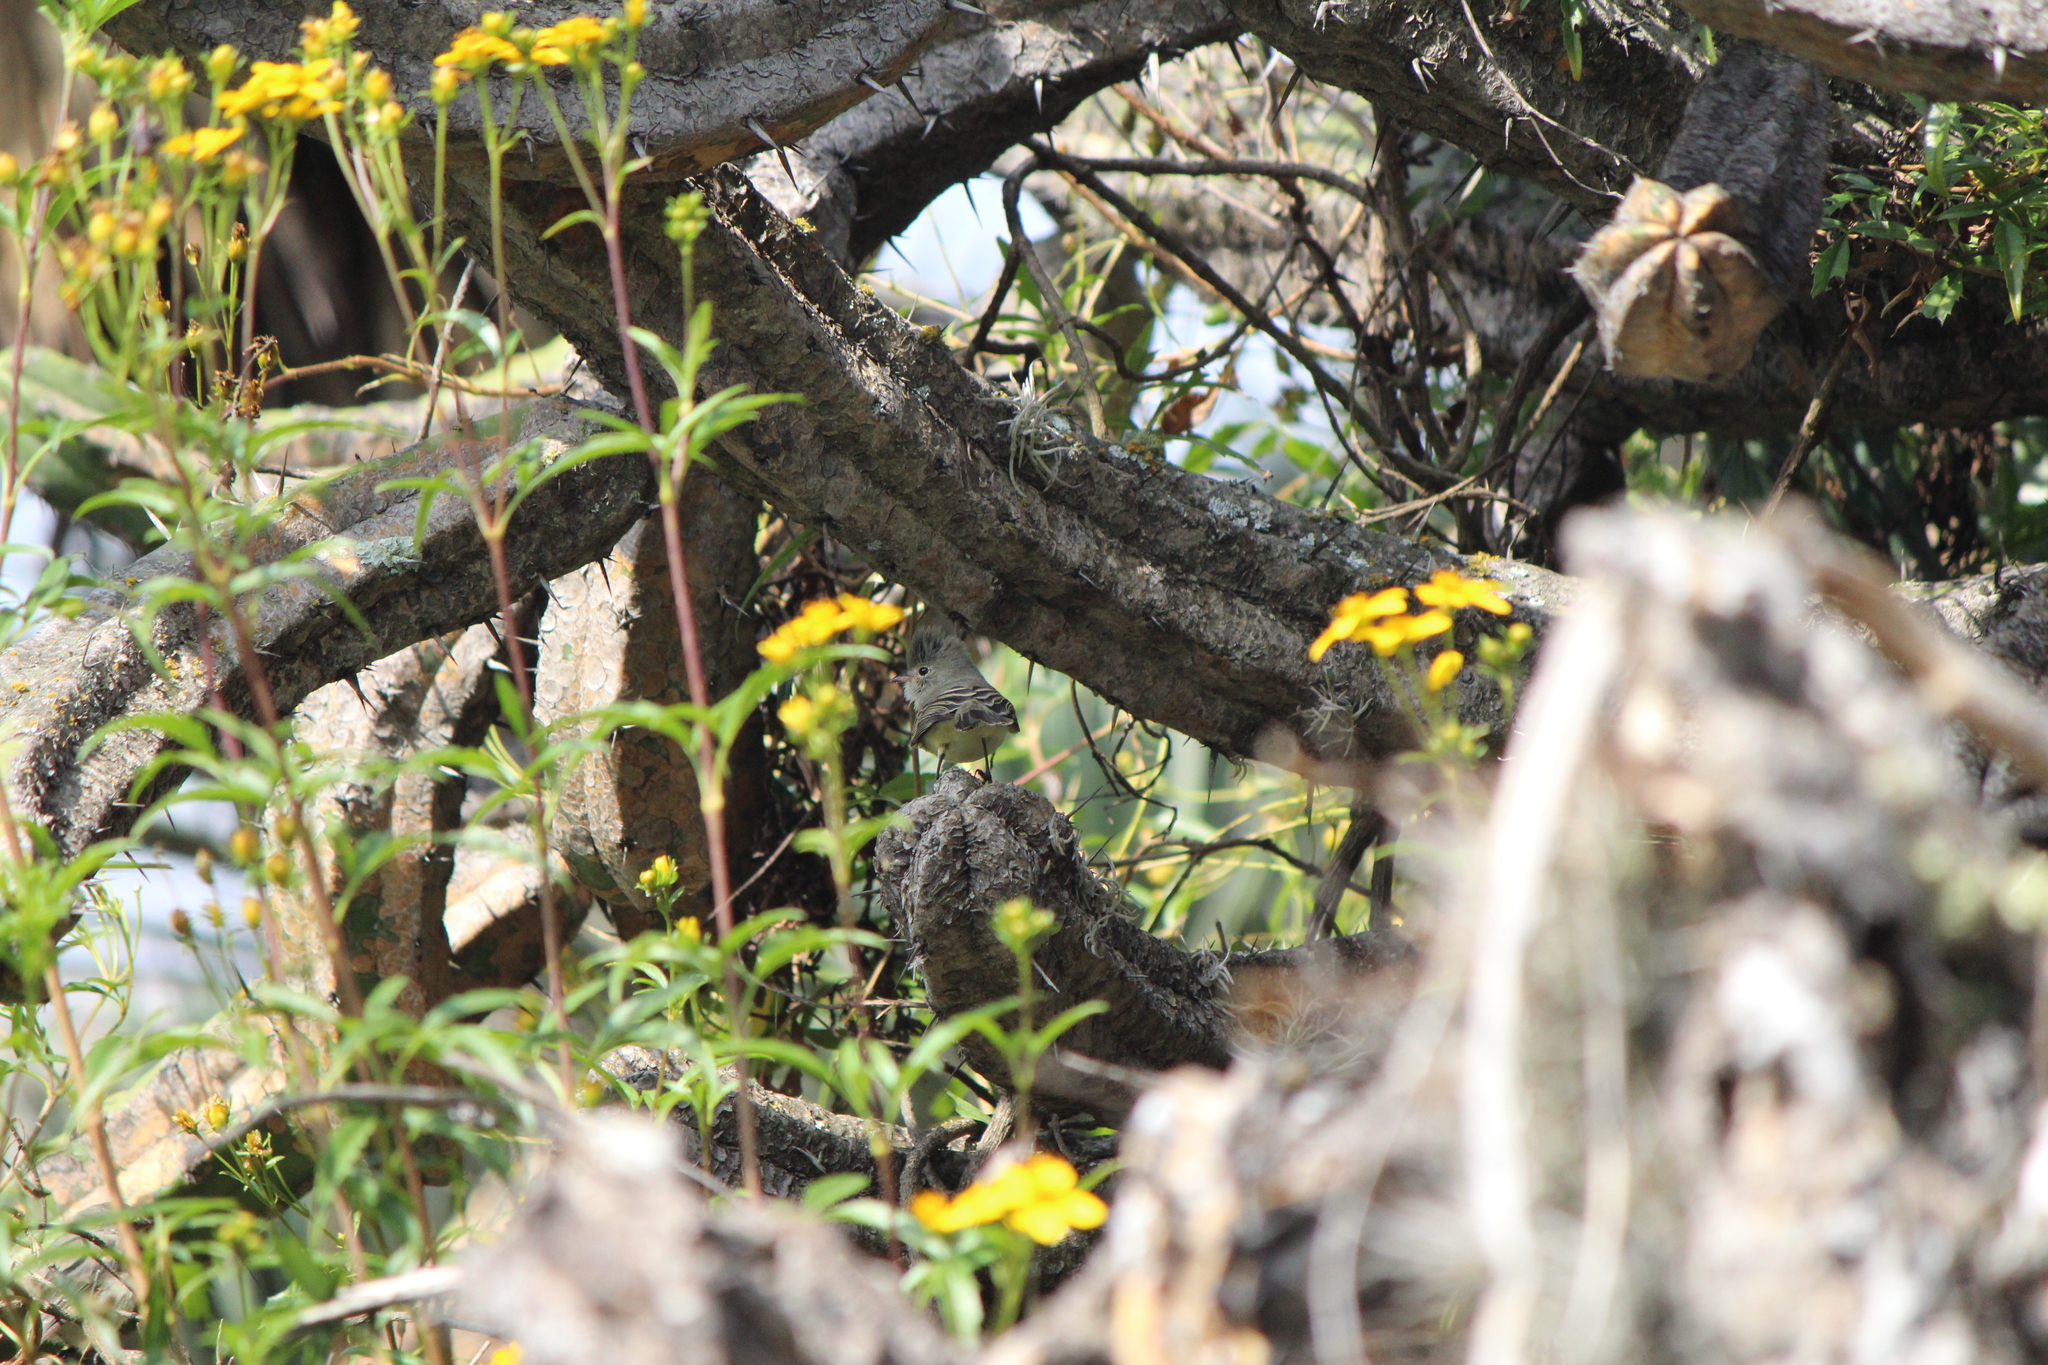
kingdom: Animalia
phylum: Chordata
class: Aves
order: Passeriformes
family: Tyrannidae
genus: Camptostoma
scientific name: Camptostoma imberbe
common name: Northern beardless-tyrannulet
